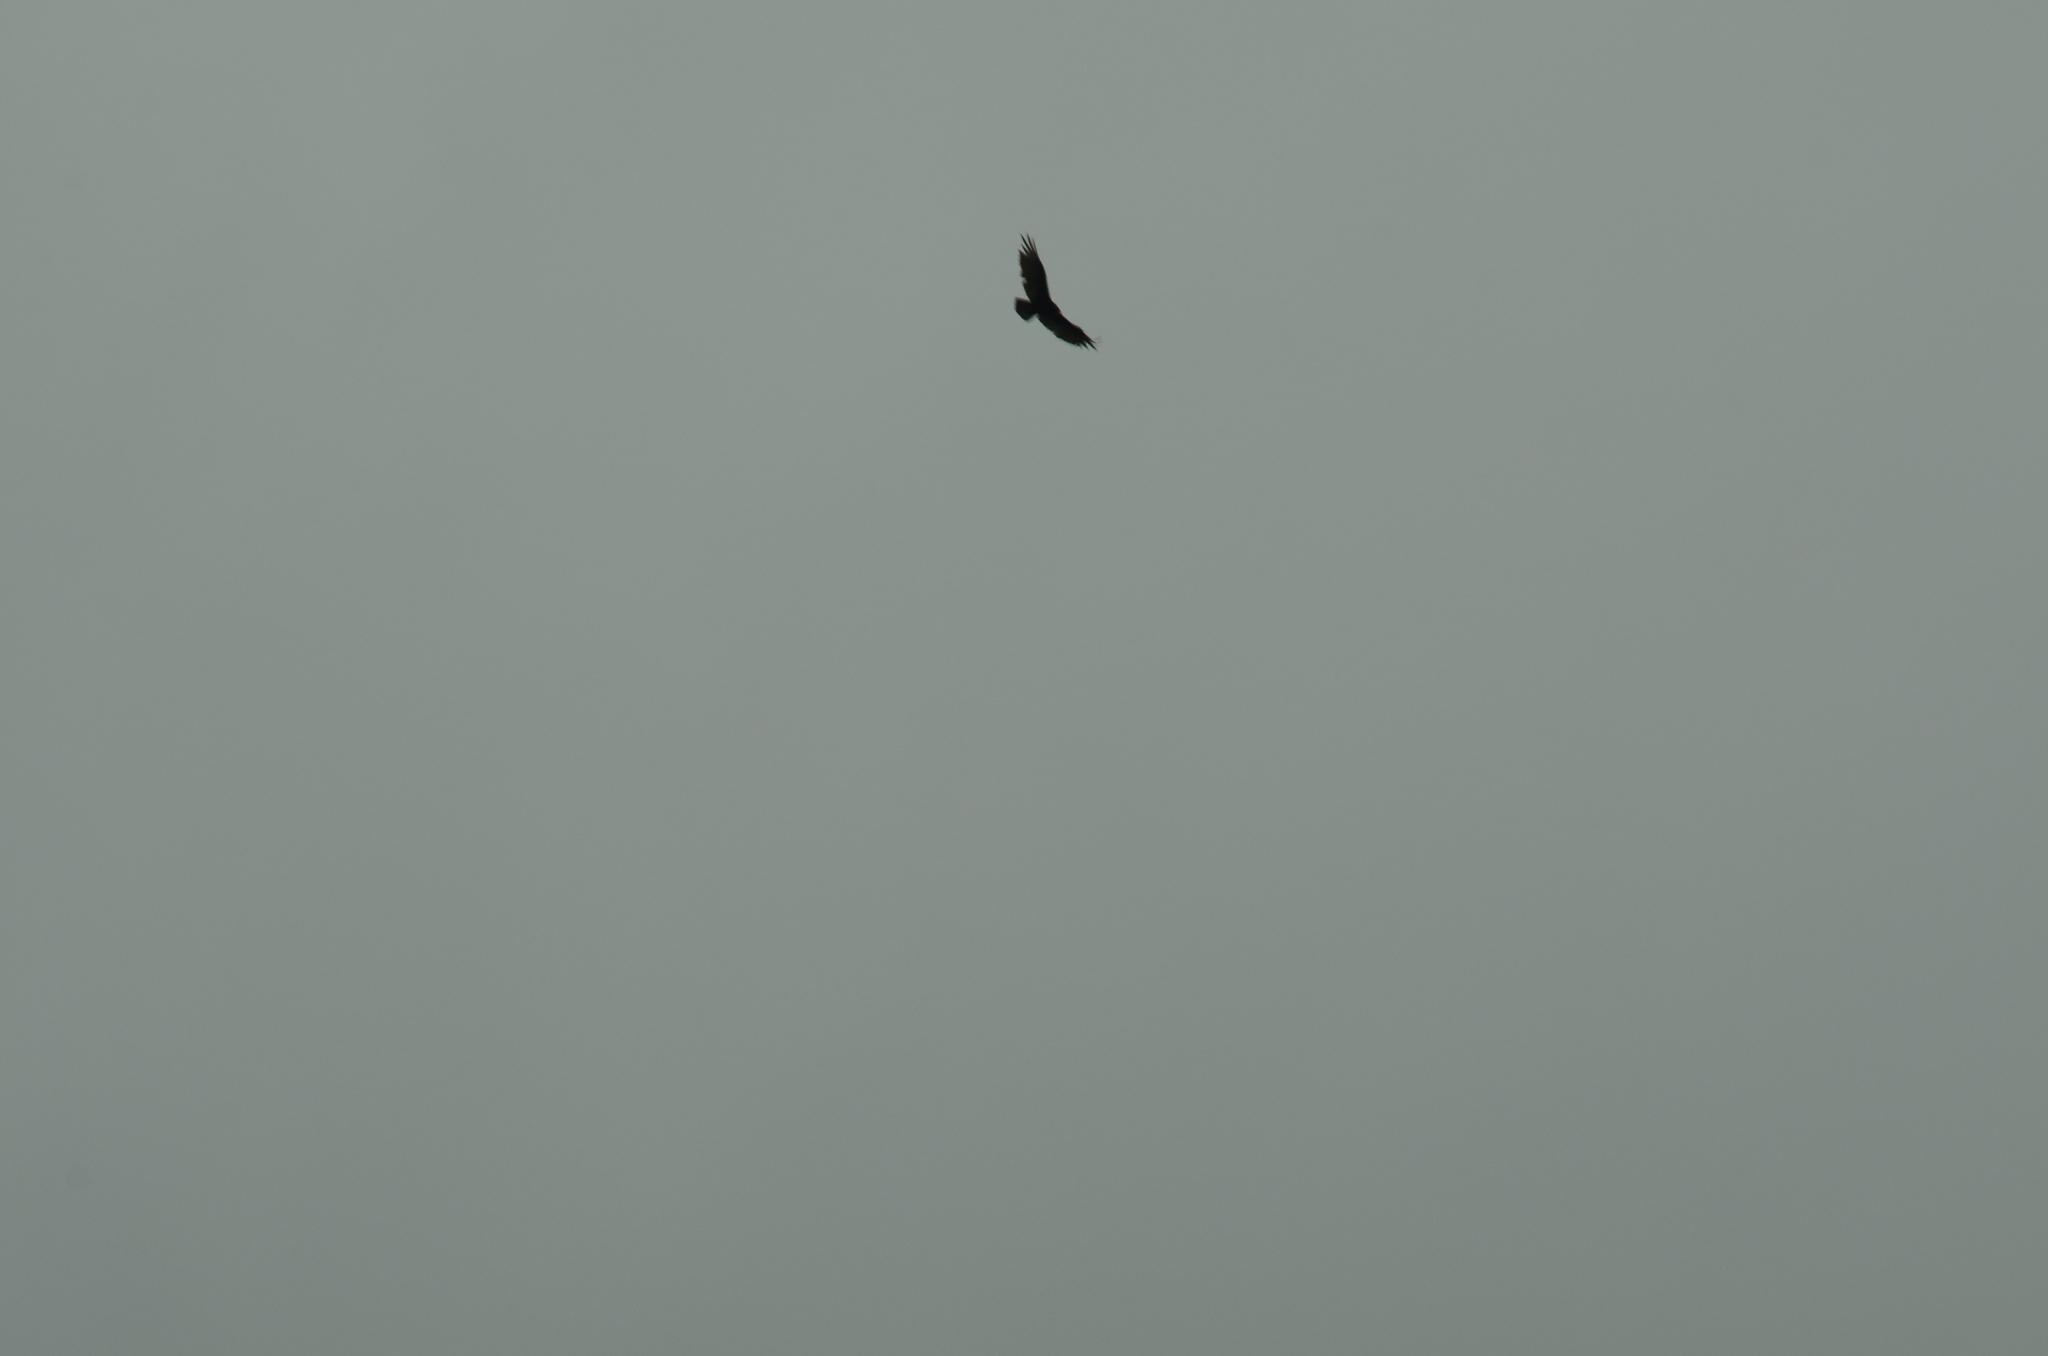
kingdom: Animalia
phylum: Chordata
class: Aves
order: Accipitriformes
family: Cathartidae
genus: Cathartes
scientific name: Cathartes aura
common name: Turkey vulture
